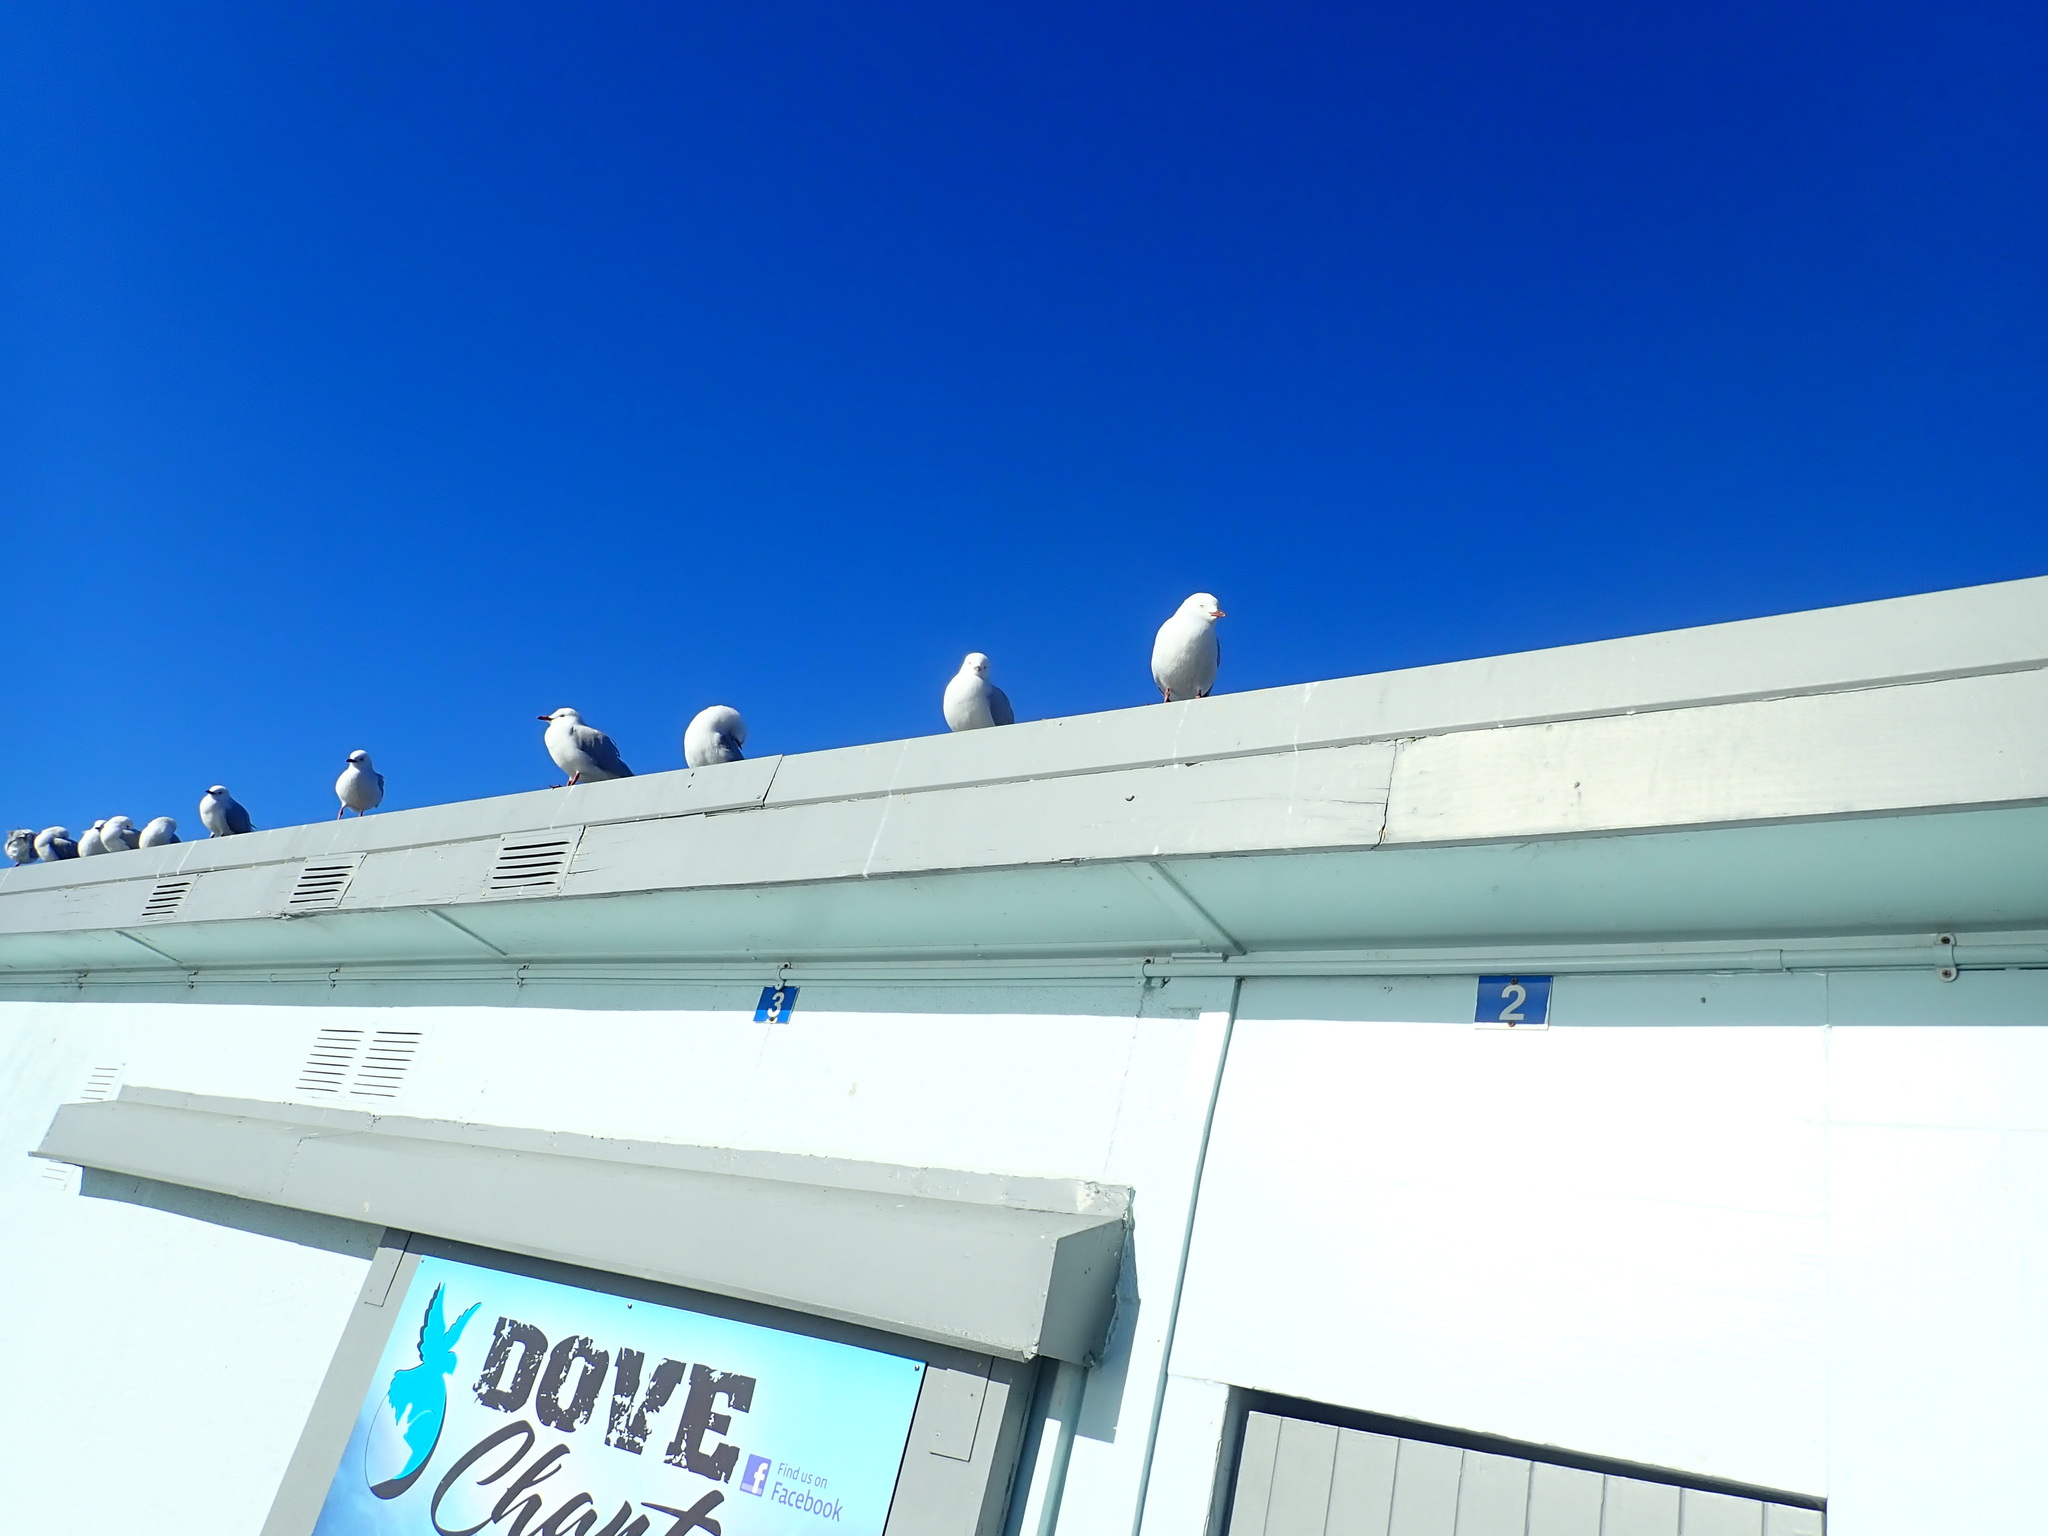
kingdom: Animalia
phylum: Chordata
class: Aves
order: Charadriiformes
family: Laridae
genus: Chroicocephalus
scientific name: Chroicocephalus bulleri
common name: Black-billed gull
